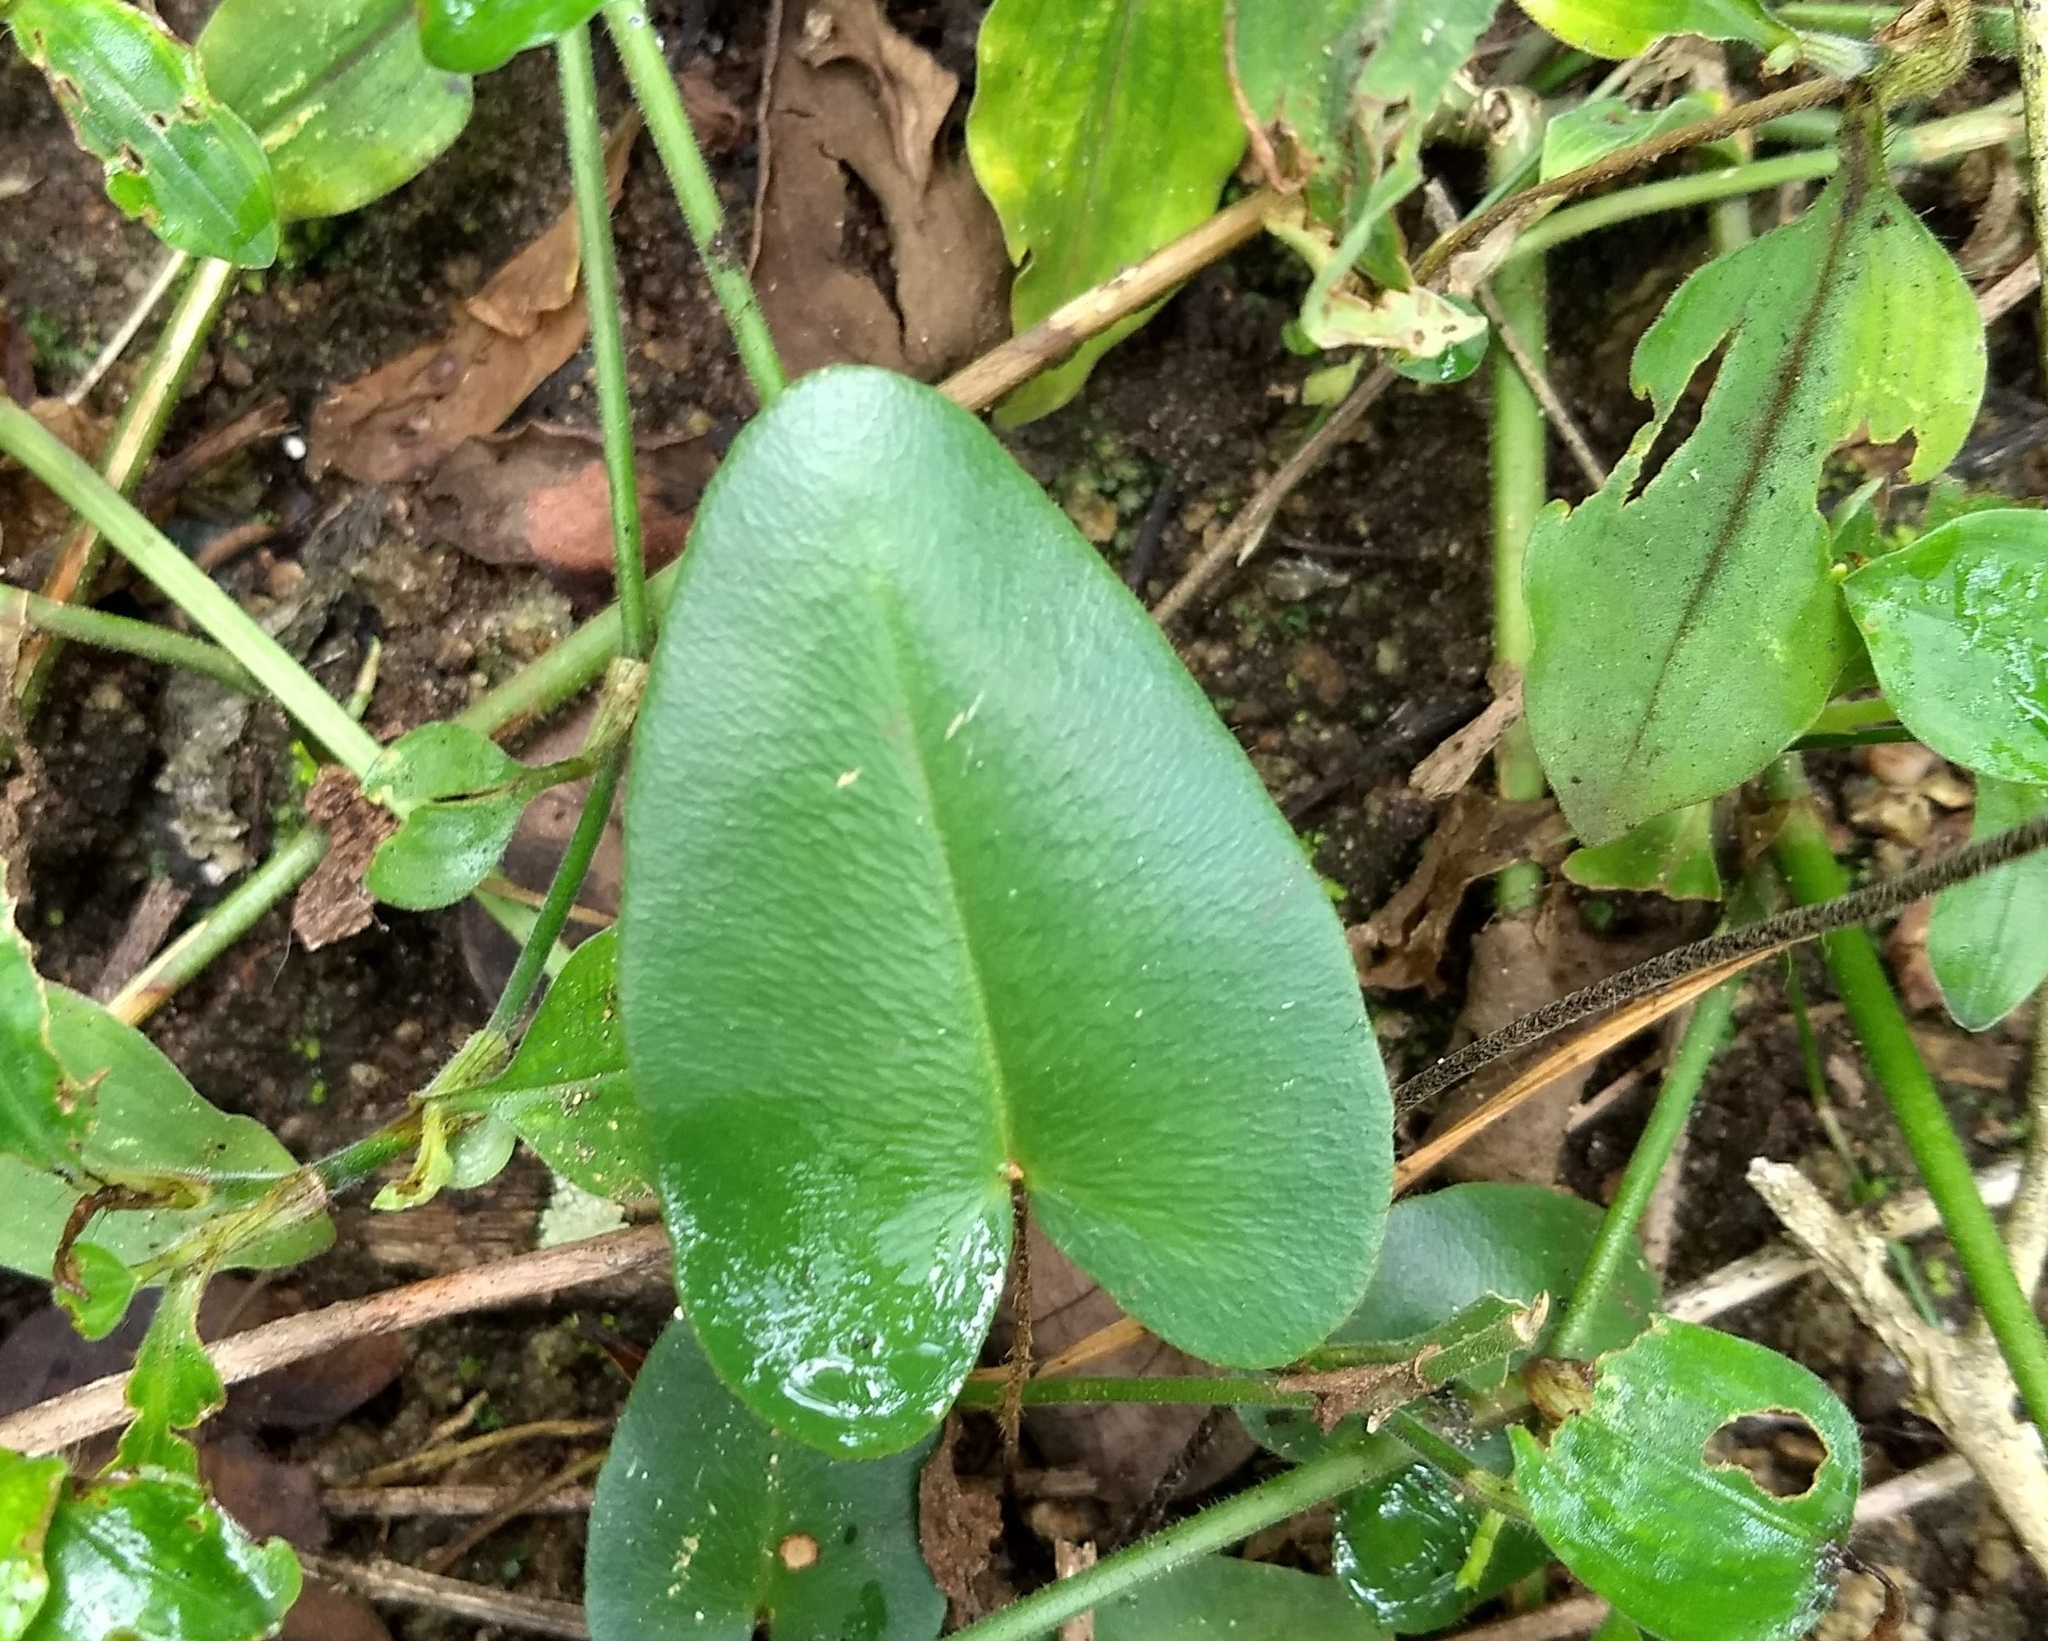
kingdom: Plantae
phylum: Tracheophyta
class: Polypodiopsida
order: Polypodiales
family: Pteridaceae
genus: Mickelopteris
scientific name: Mickelopteris cordata
